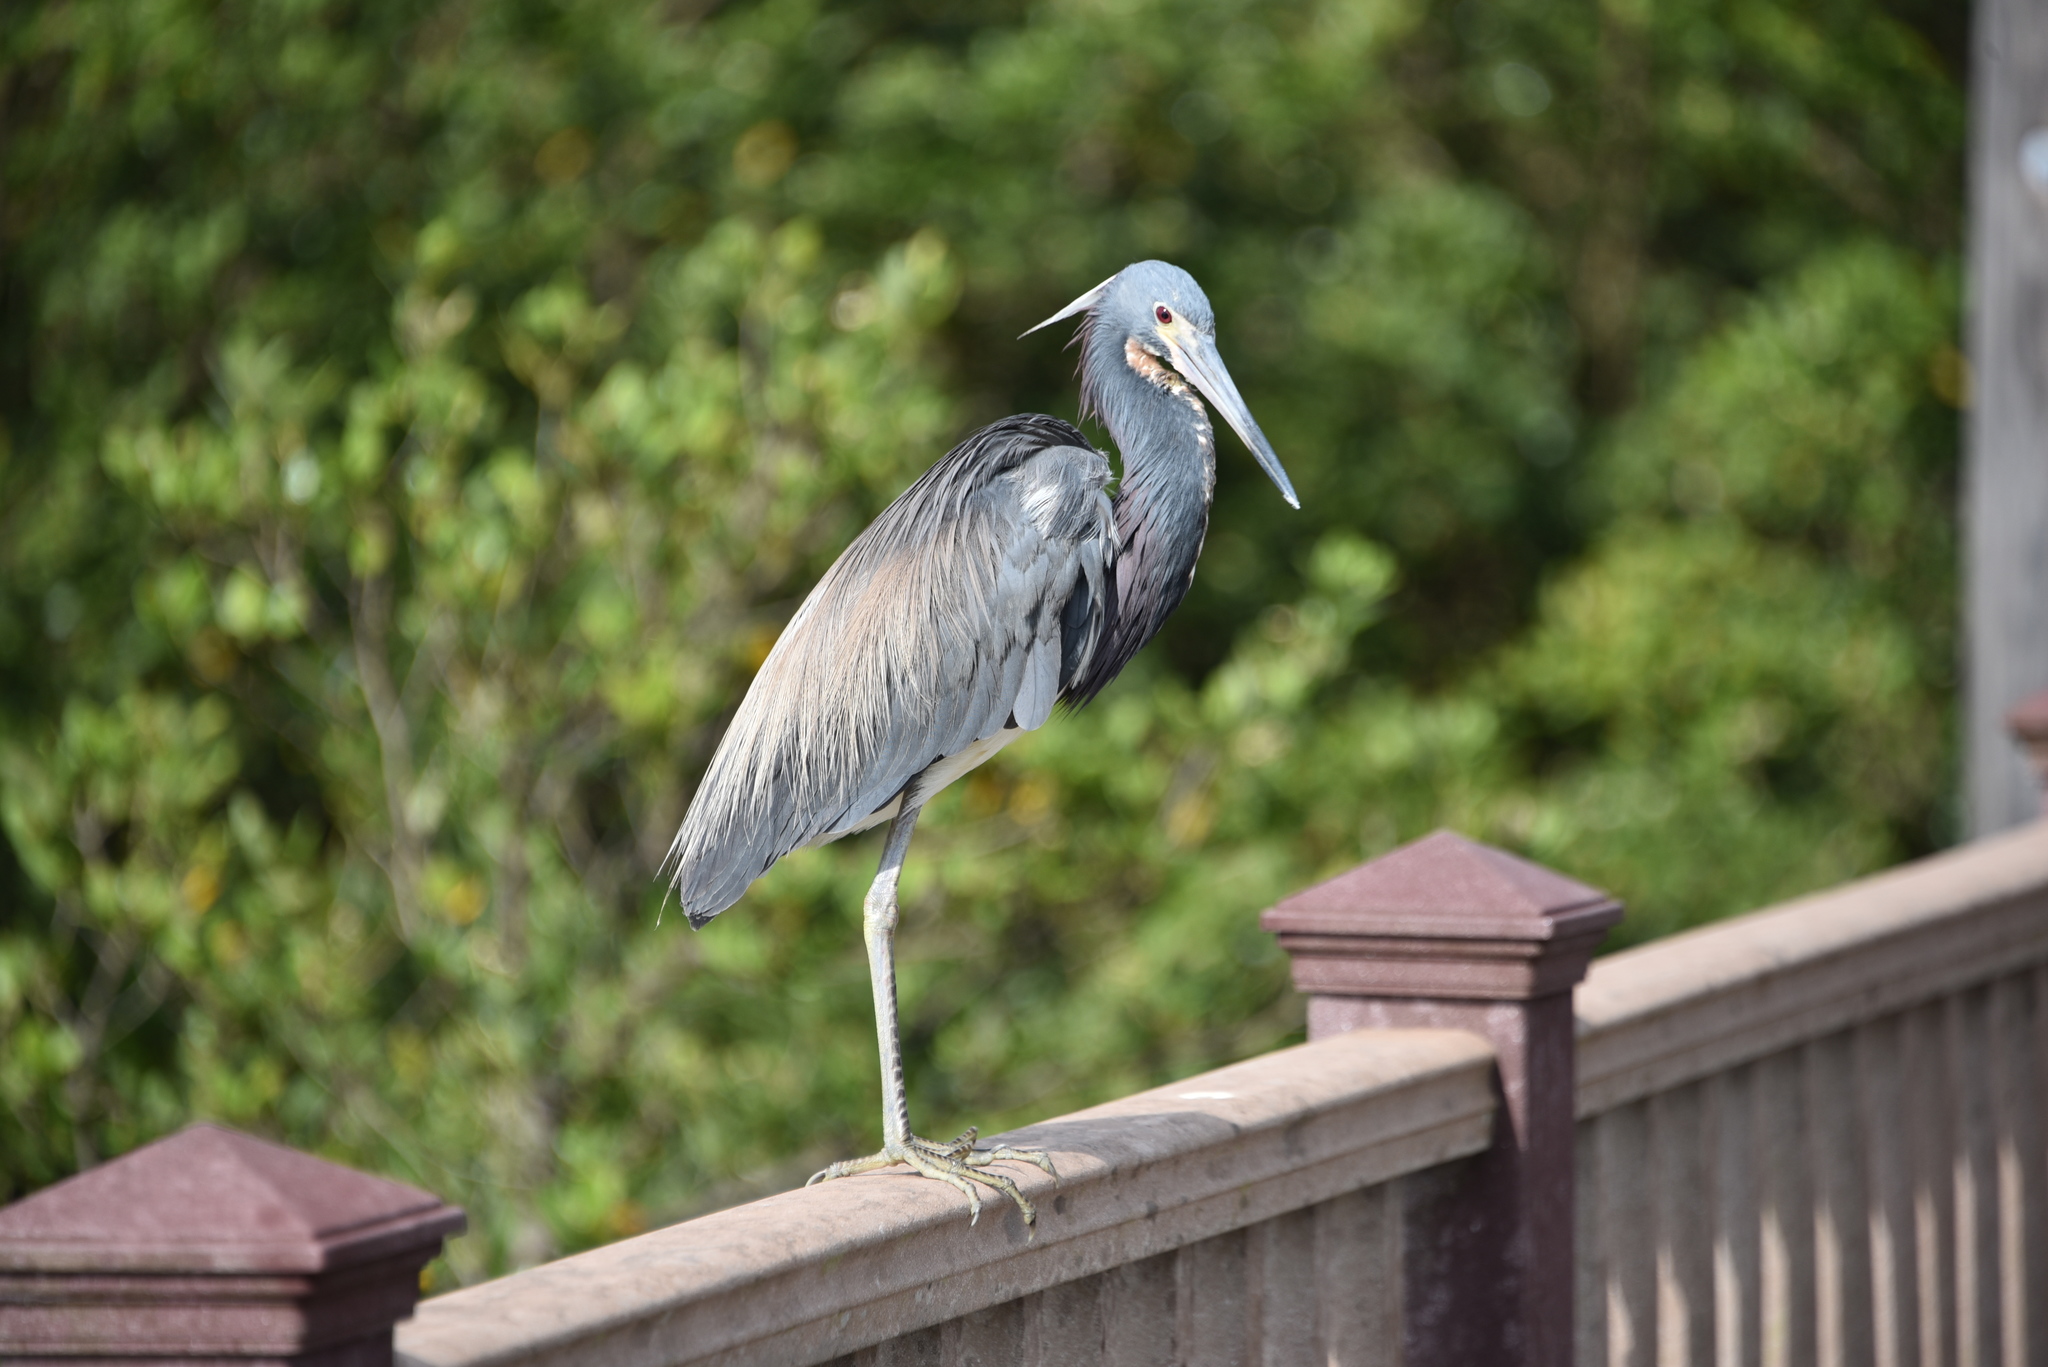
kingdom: Animalia
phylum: Chordata
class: Aves
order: Pelecaniformes
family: Ardeidae
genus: Egretta
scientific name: Egretta tricolor
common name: Tricolored heron
